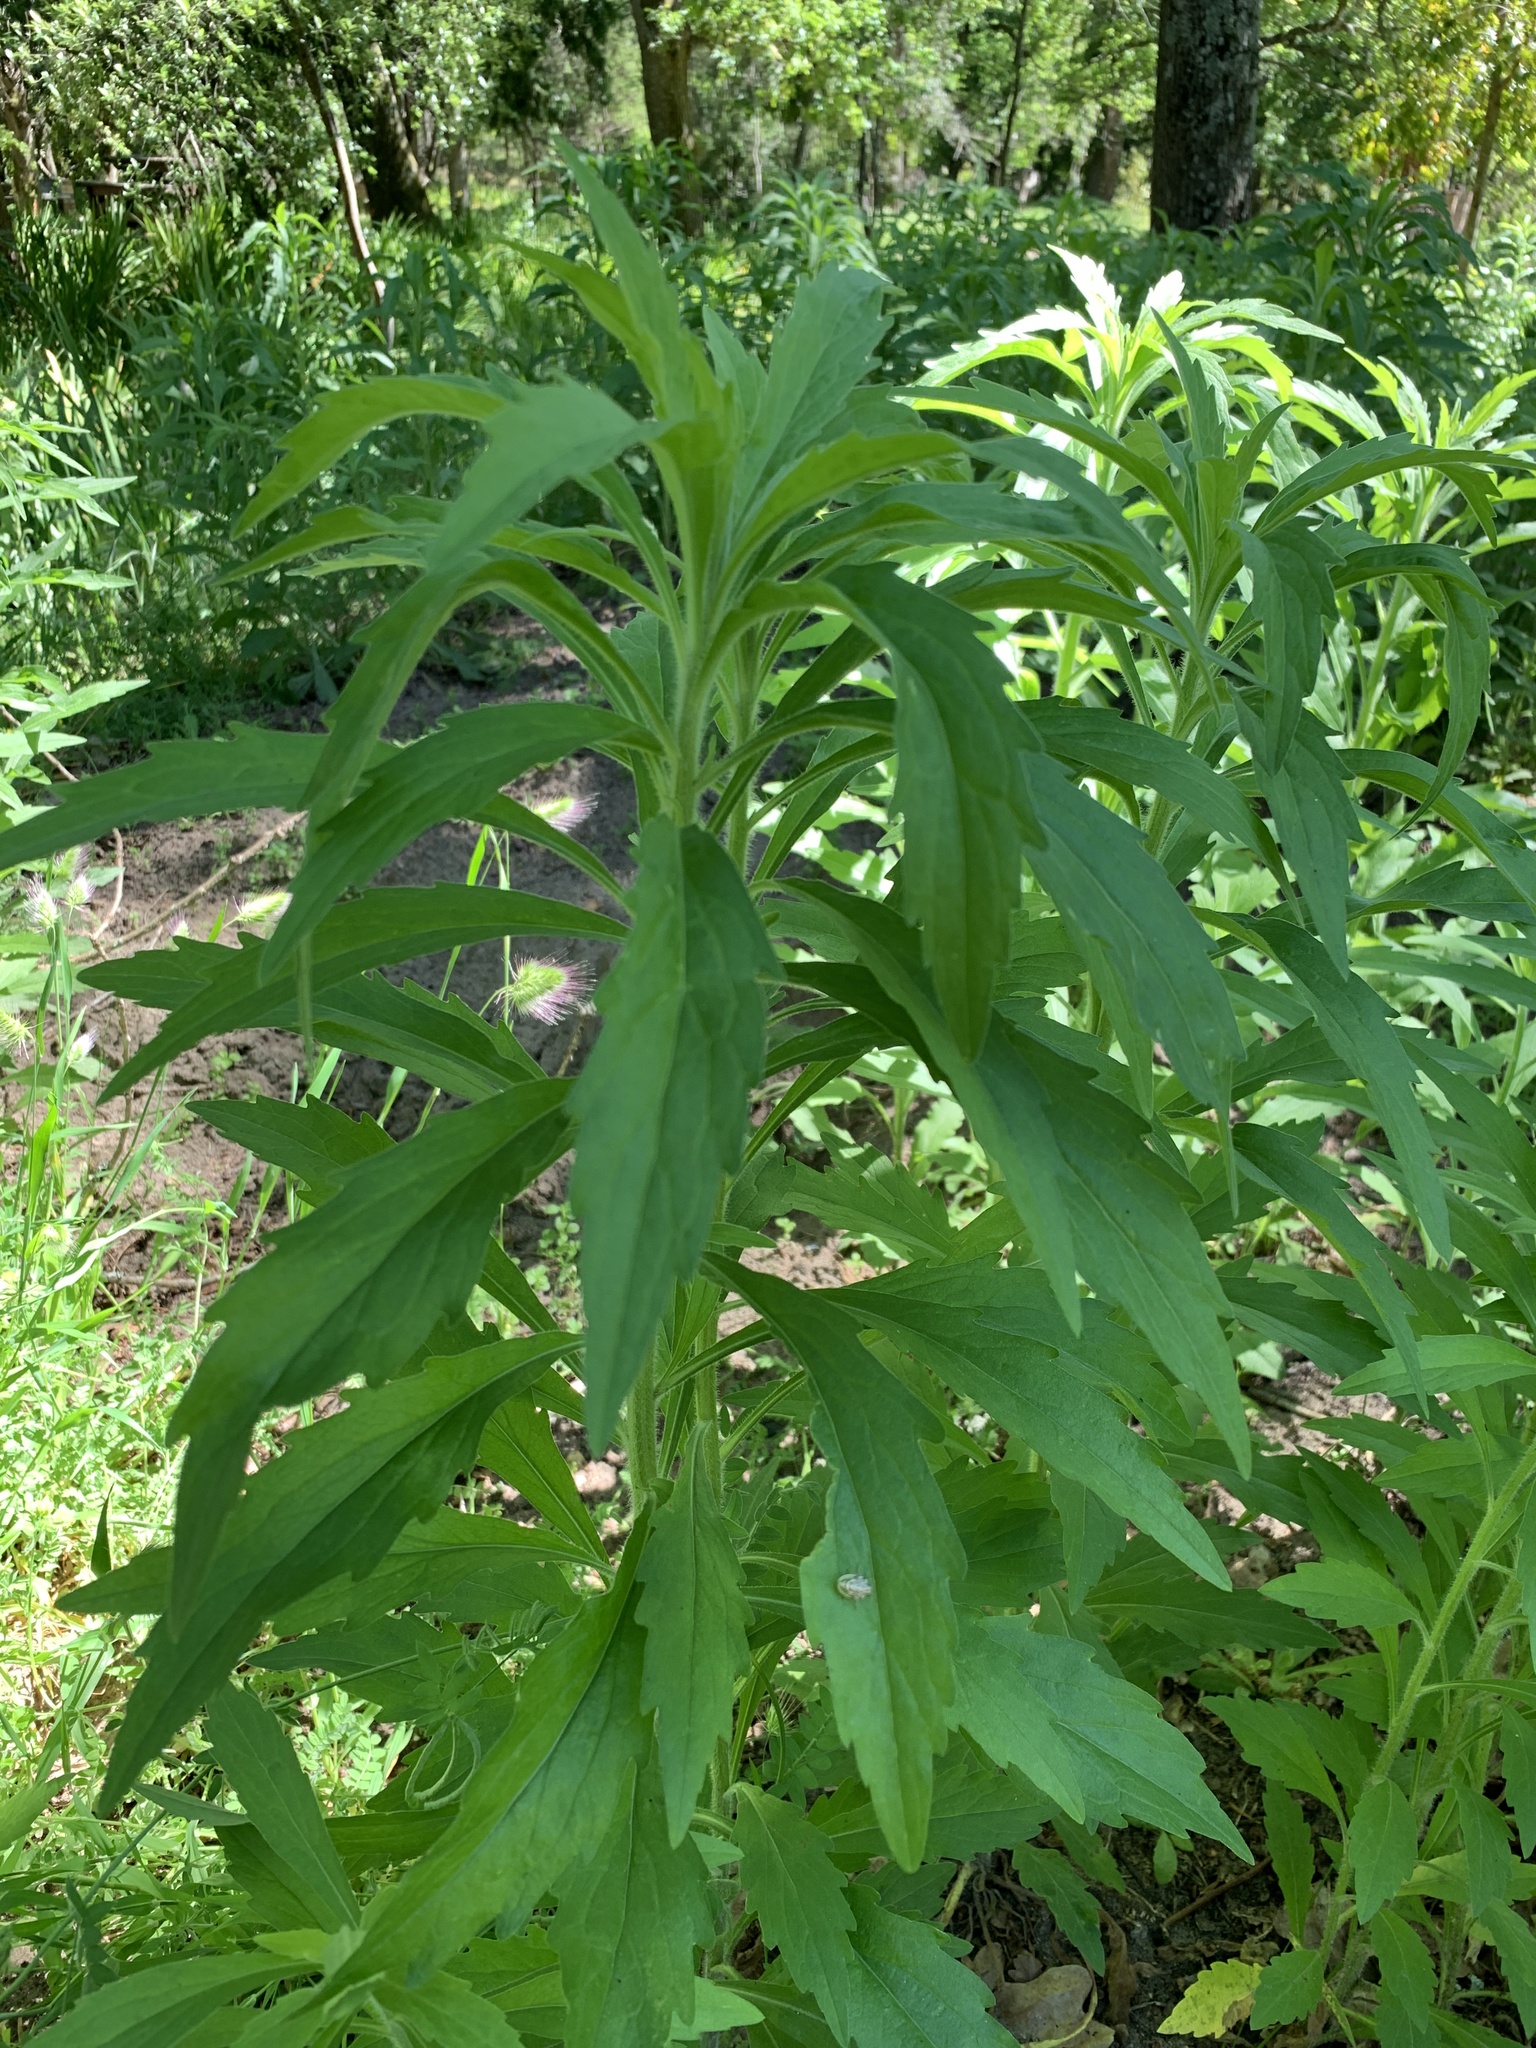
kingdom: Plantae
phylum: Tracheophyta
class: Magnoliopsida
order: Asterales
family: Asteraceae
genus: Senecio
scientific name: Senecio pterophorus
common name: Shoddy ragwort
